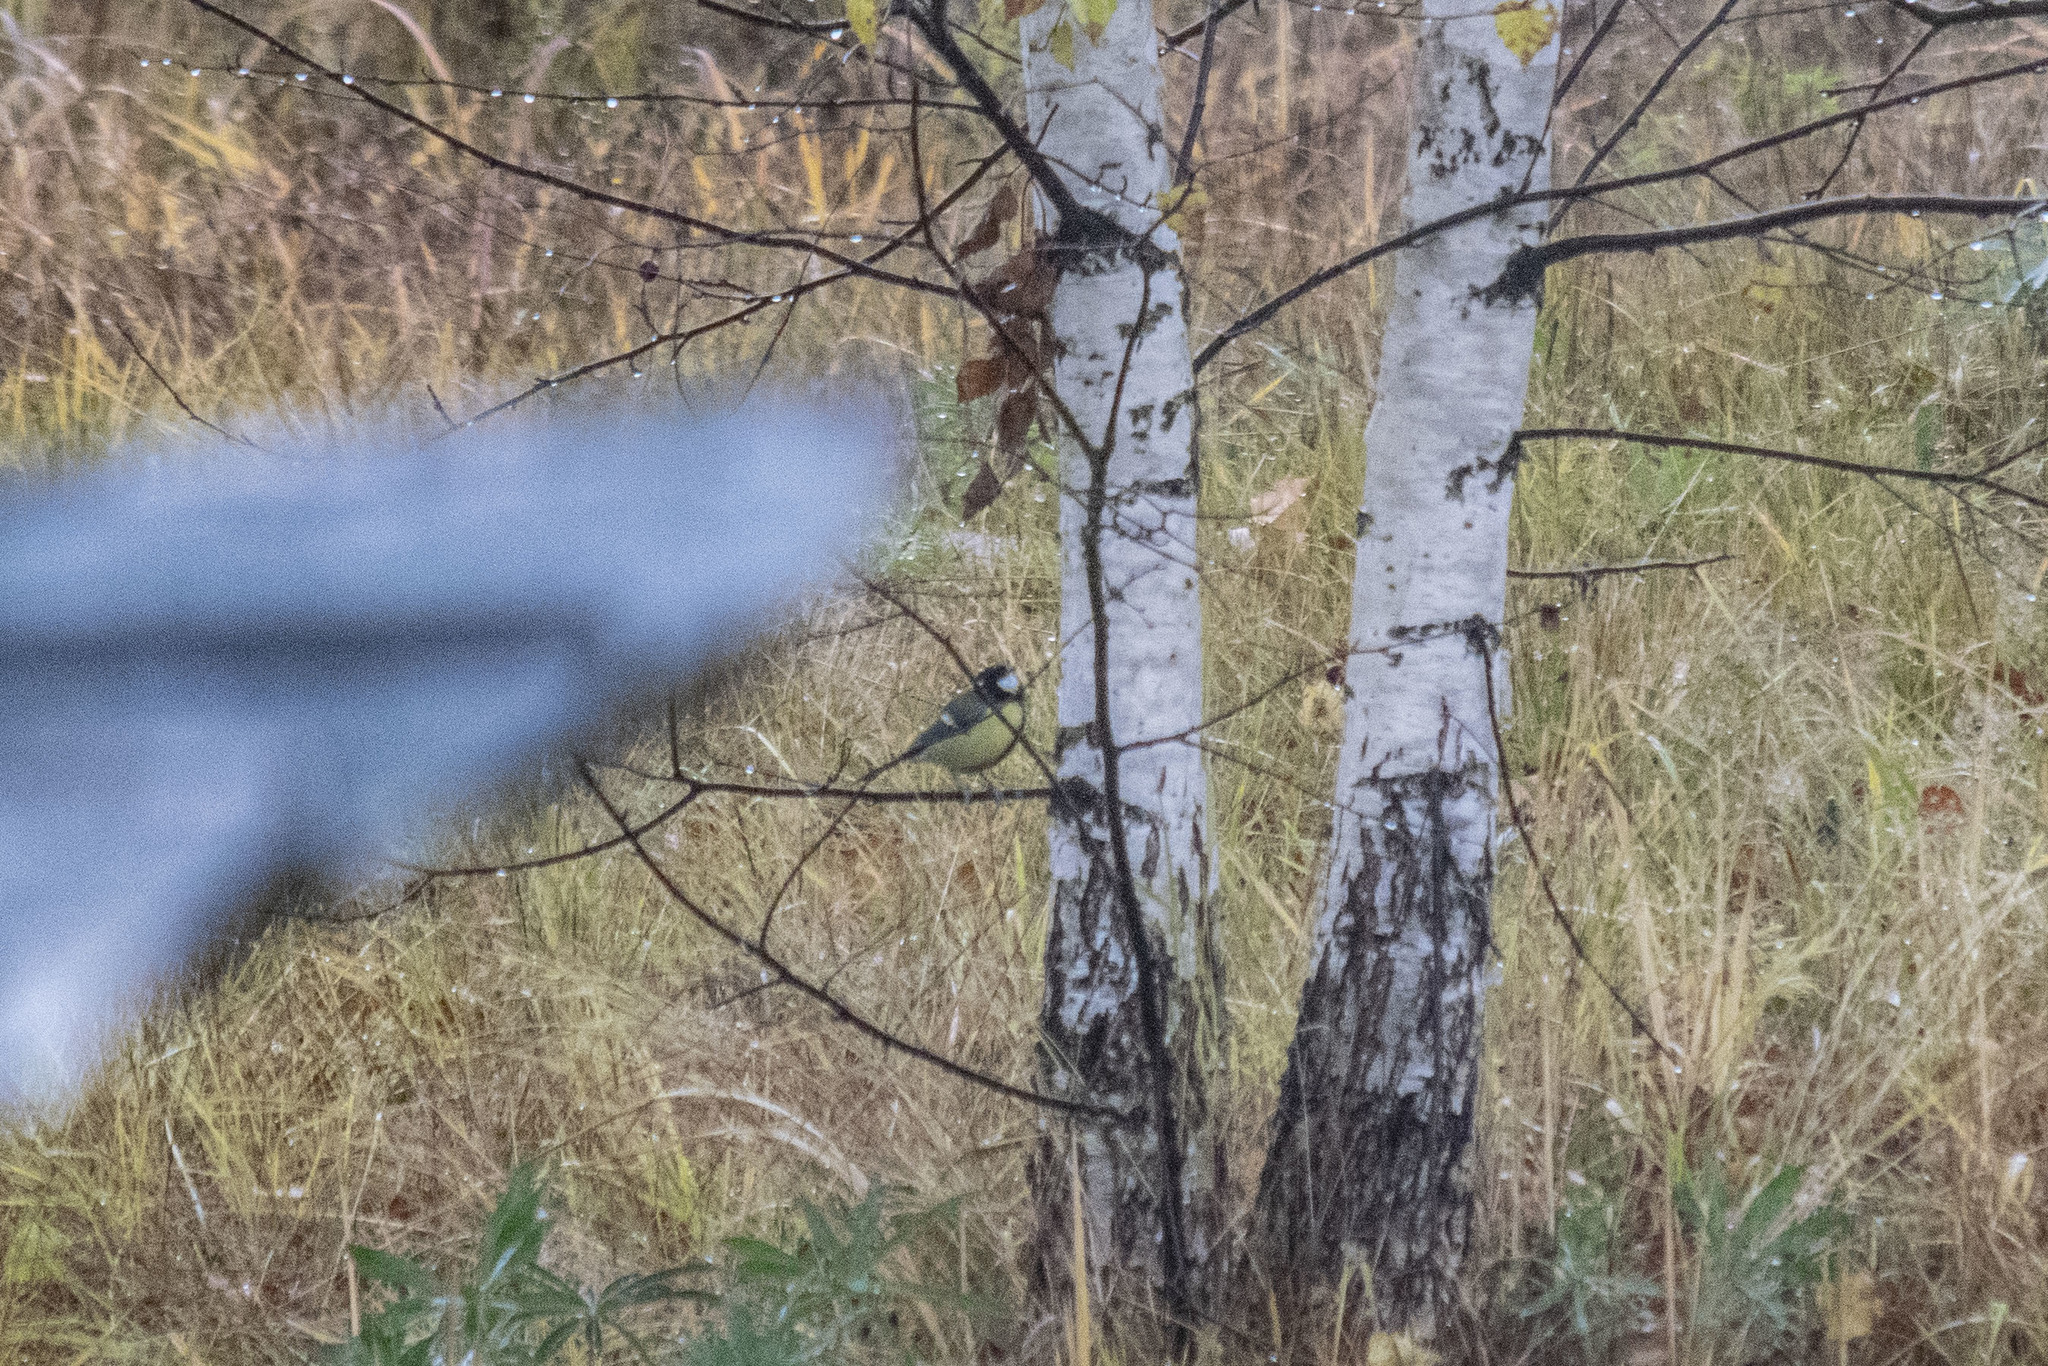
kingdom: Animalia
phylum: Chordata
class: Aves
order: Passeriformes
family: Paridae
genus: Parus
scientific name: Parus major
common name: Great tit
